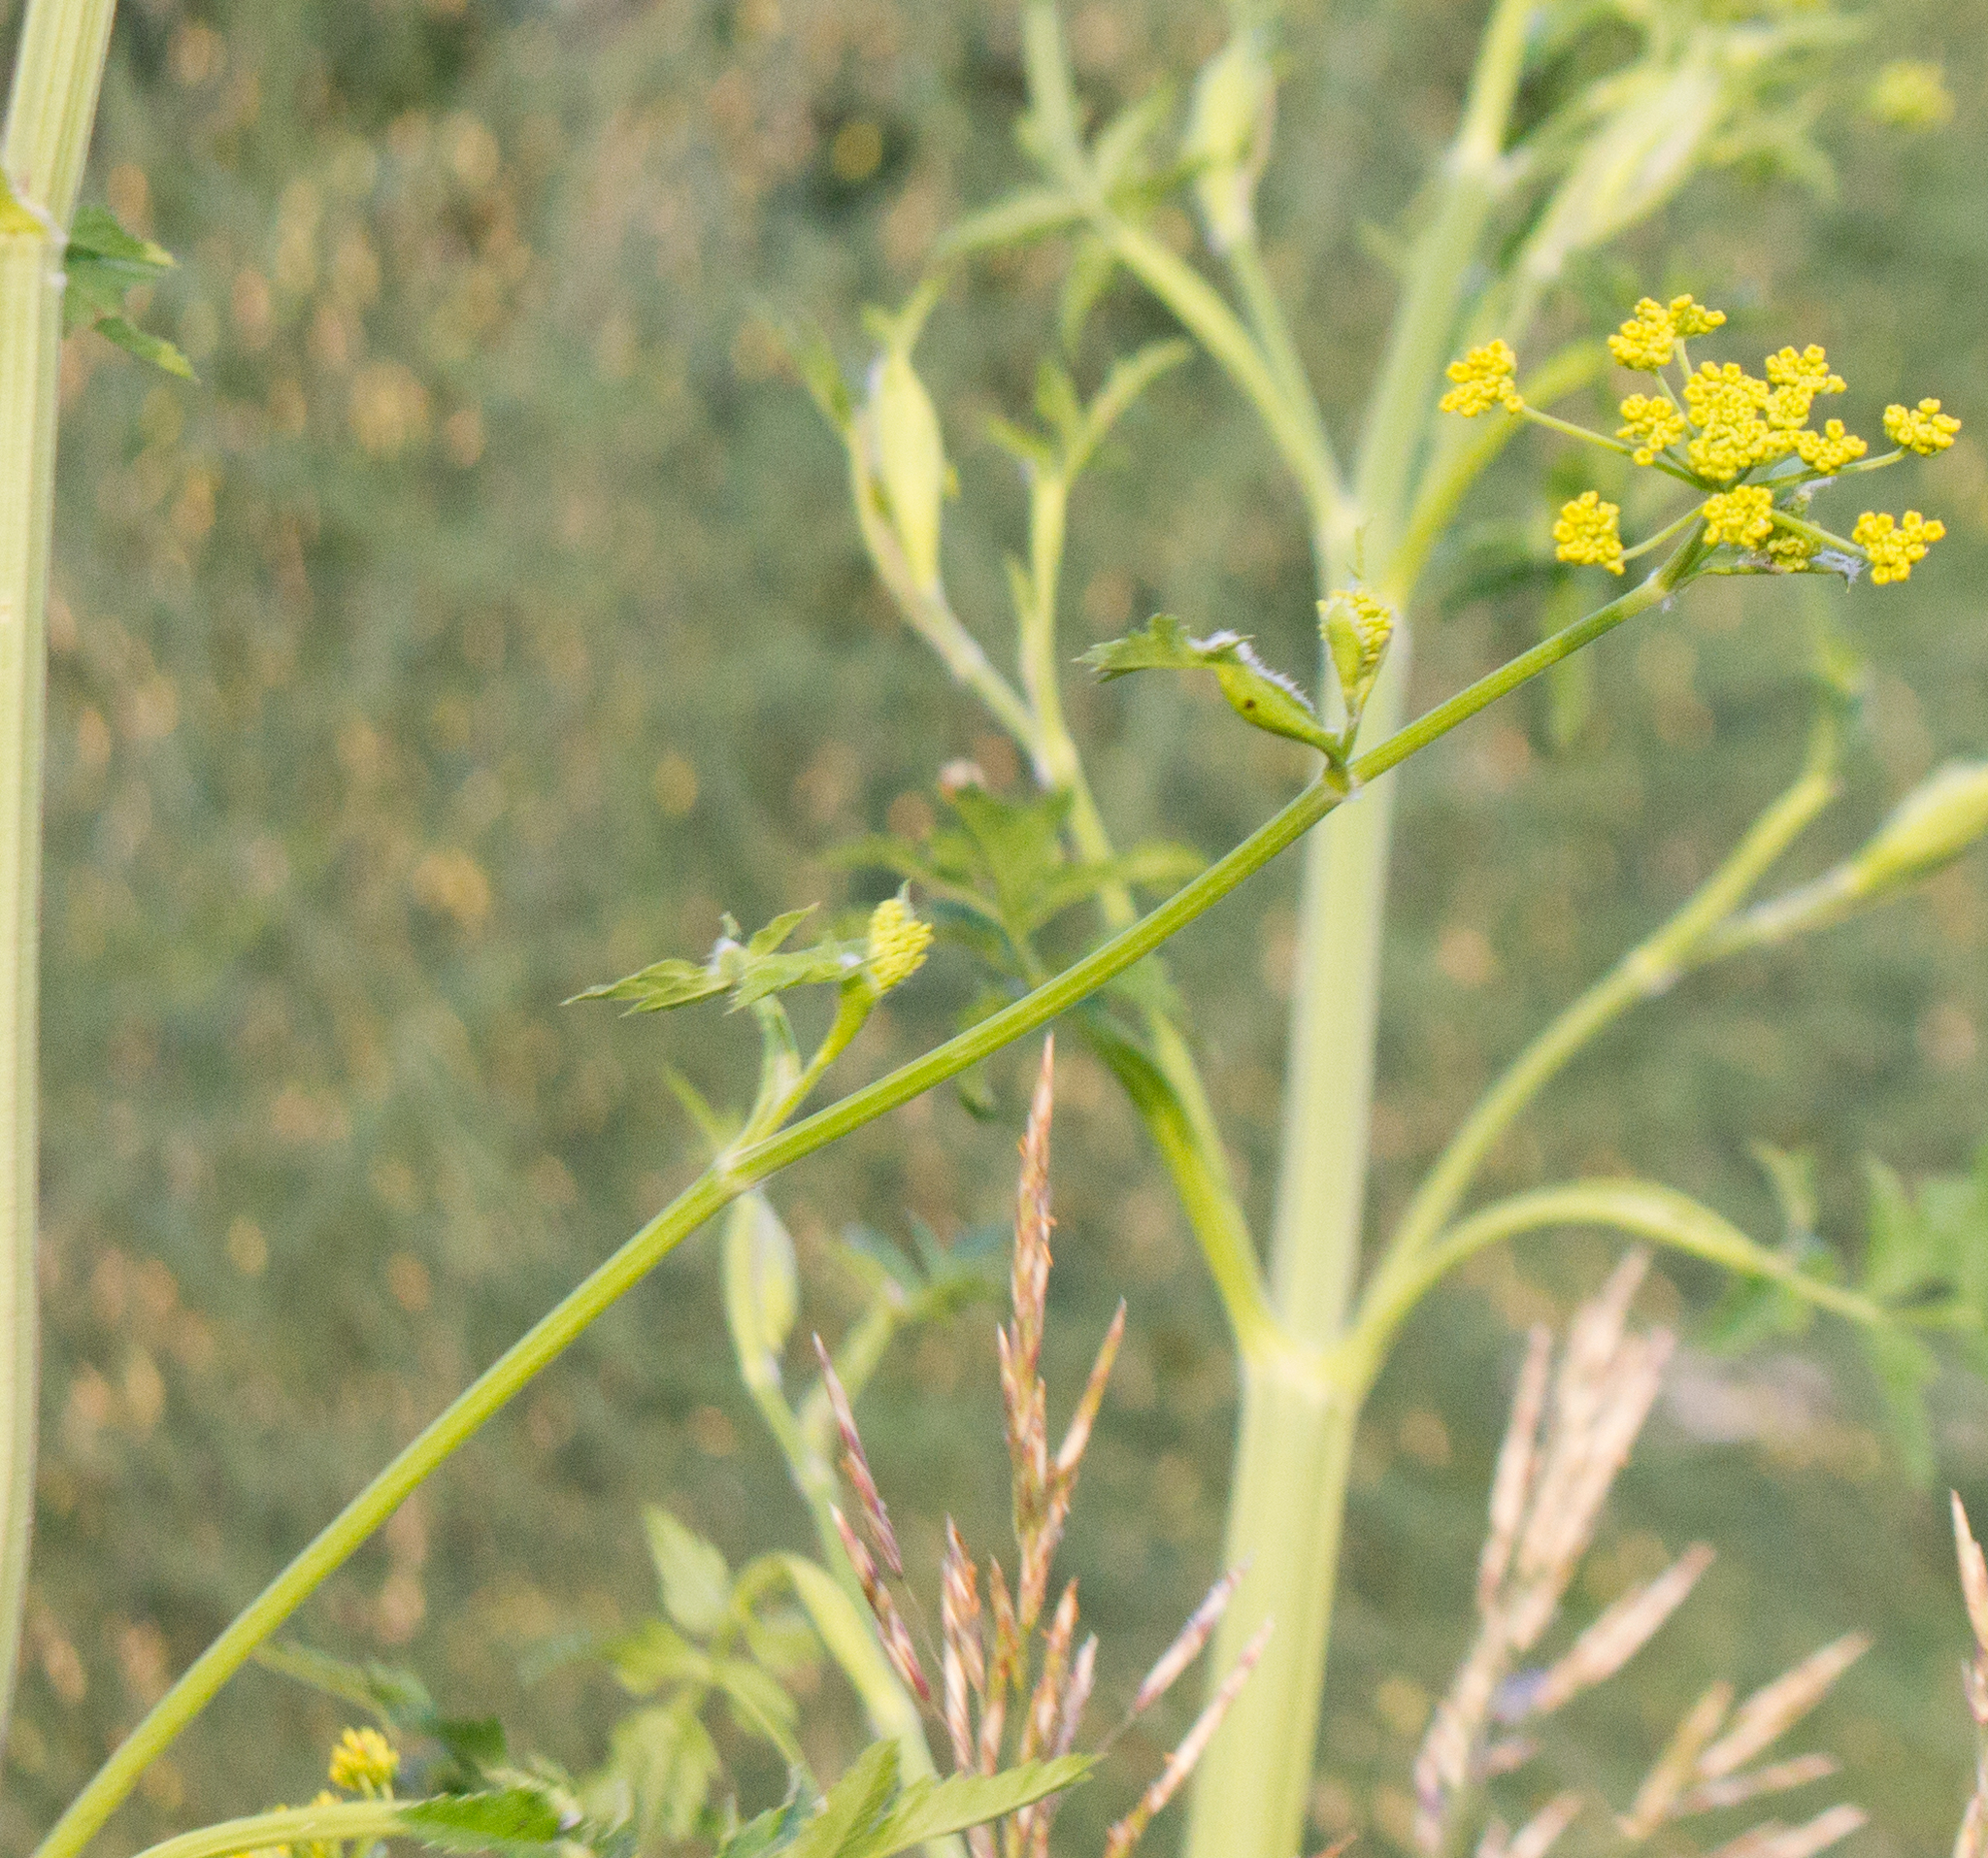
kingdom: Plantae
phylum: Tracheophyta
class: Magnoliopsida
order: Apiales
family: Apiaceae
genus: Pastinaca
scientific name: Pastinaca sativa
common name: Wild parsnip
